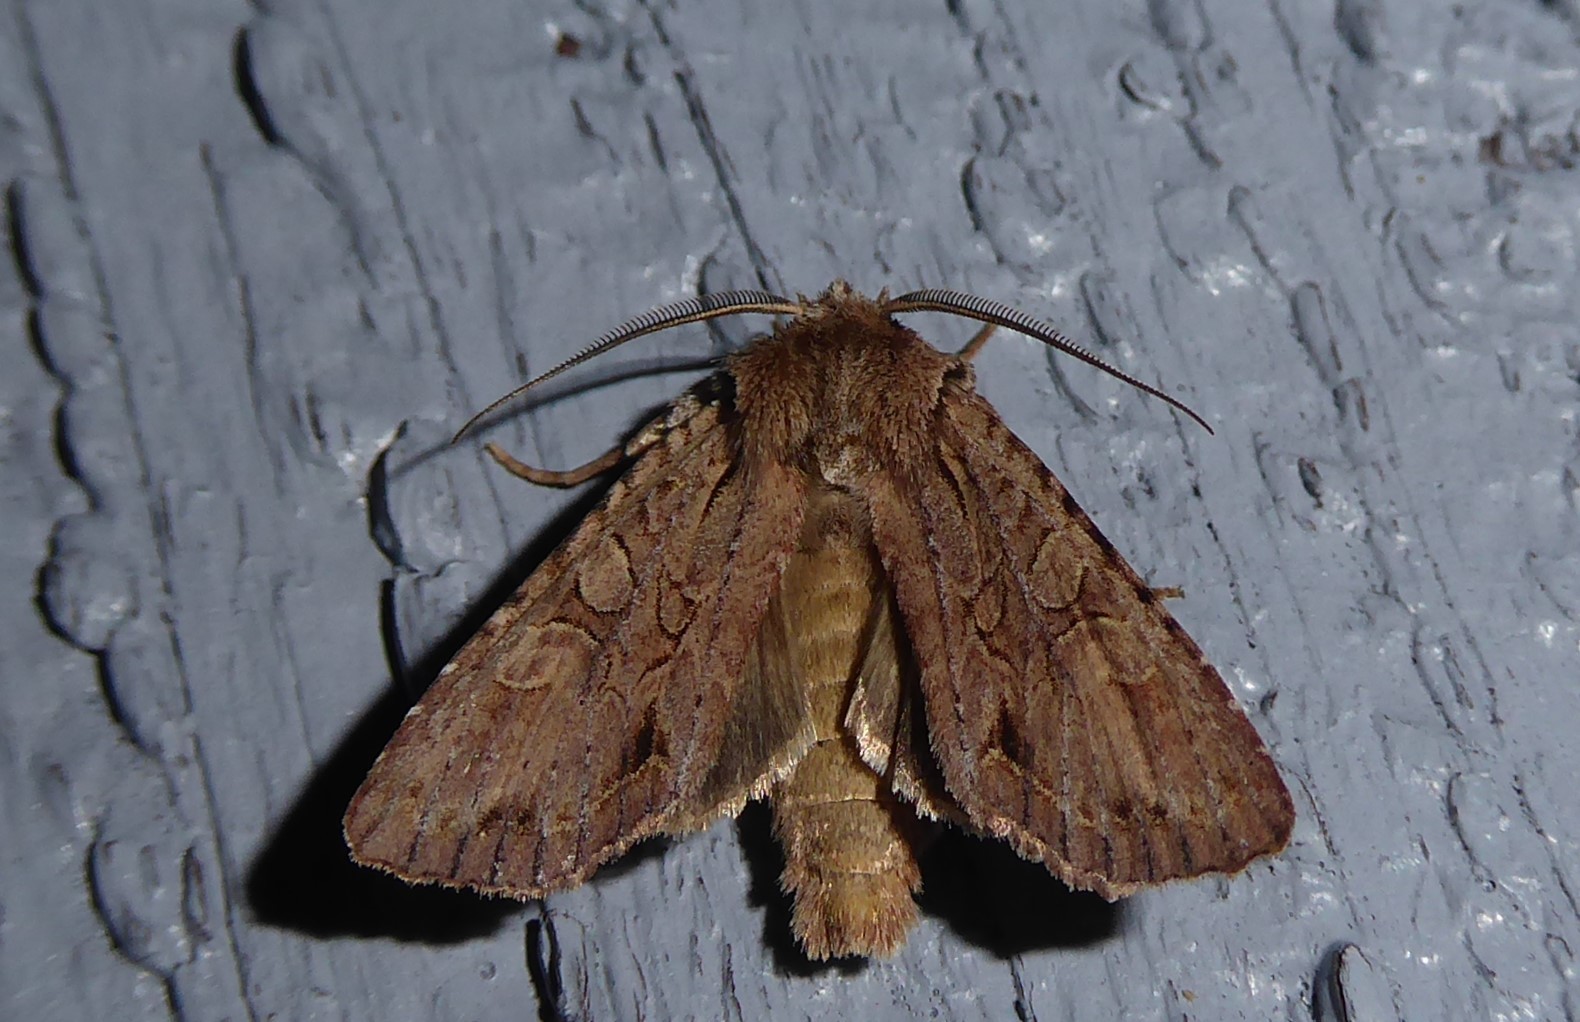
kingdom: Animalia
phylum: Arthropoda
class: Insecta
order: Lepidoptera
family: Noctuidae
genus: Ichneutica
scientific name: Ichneutica
